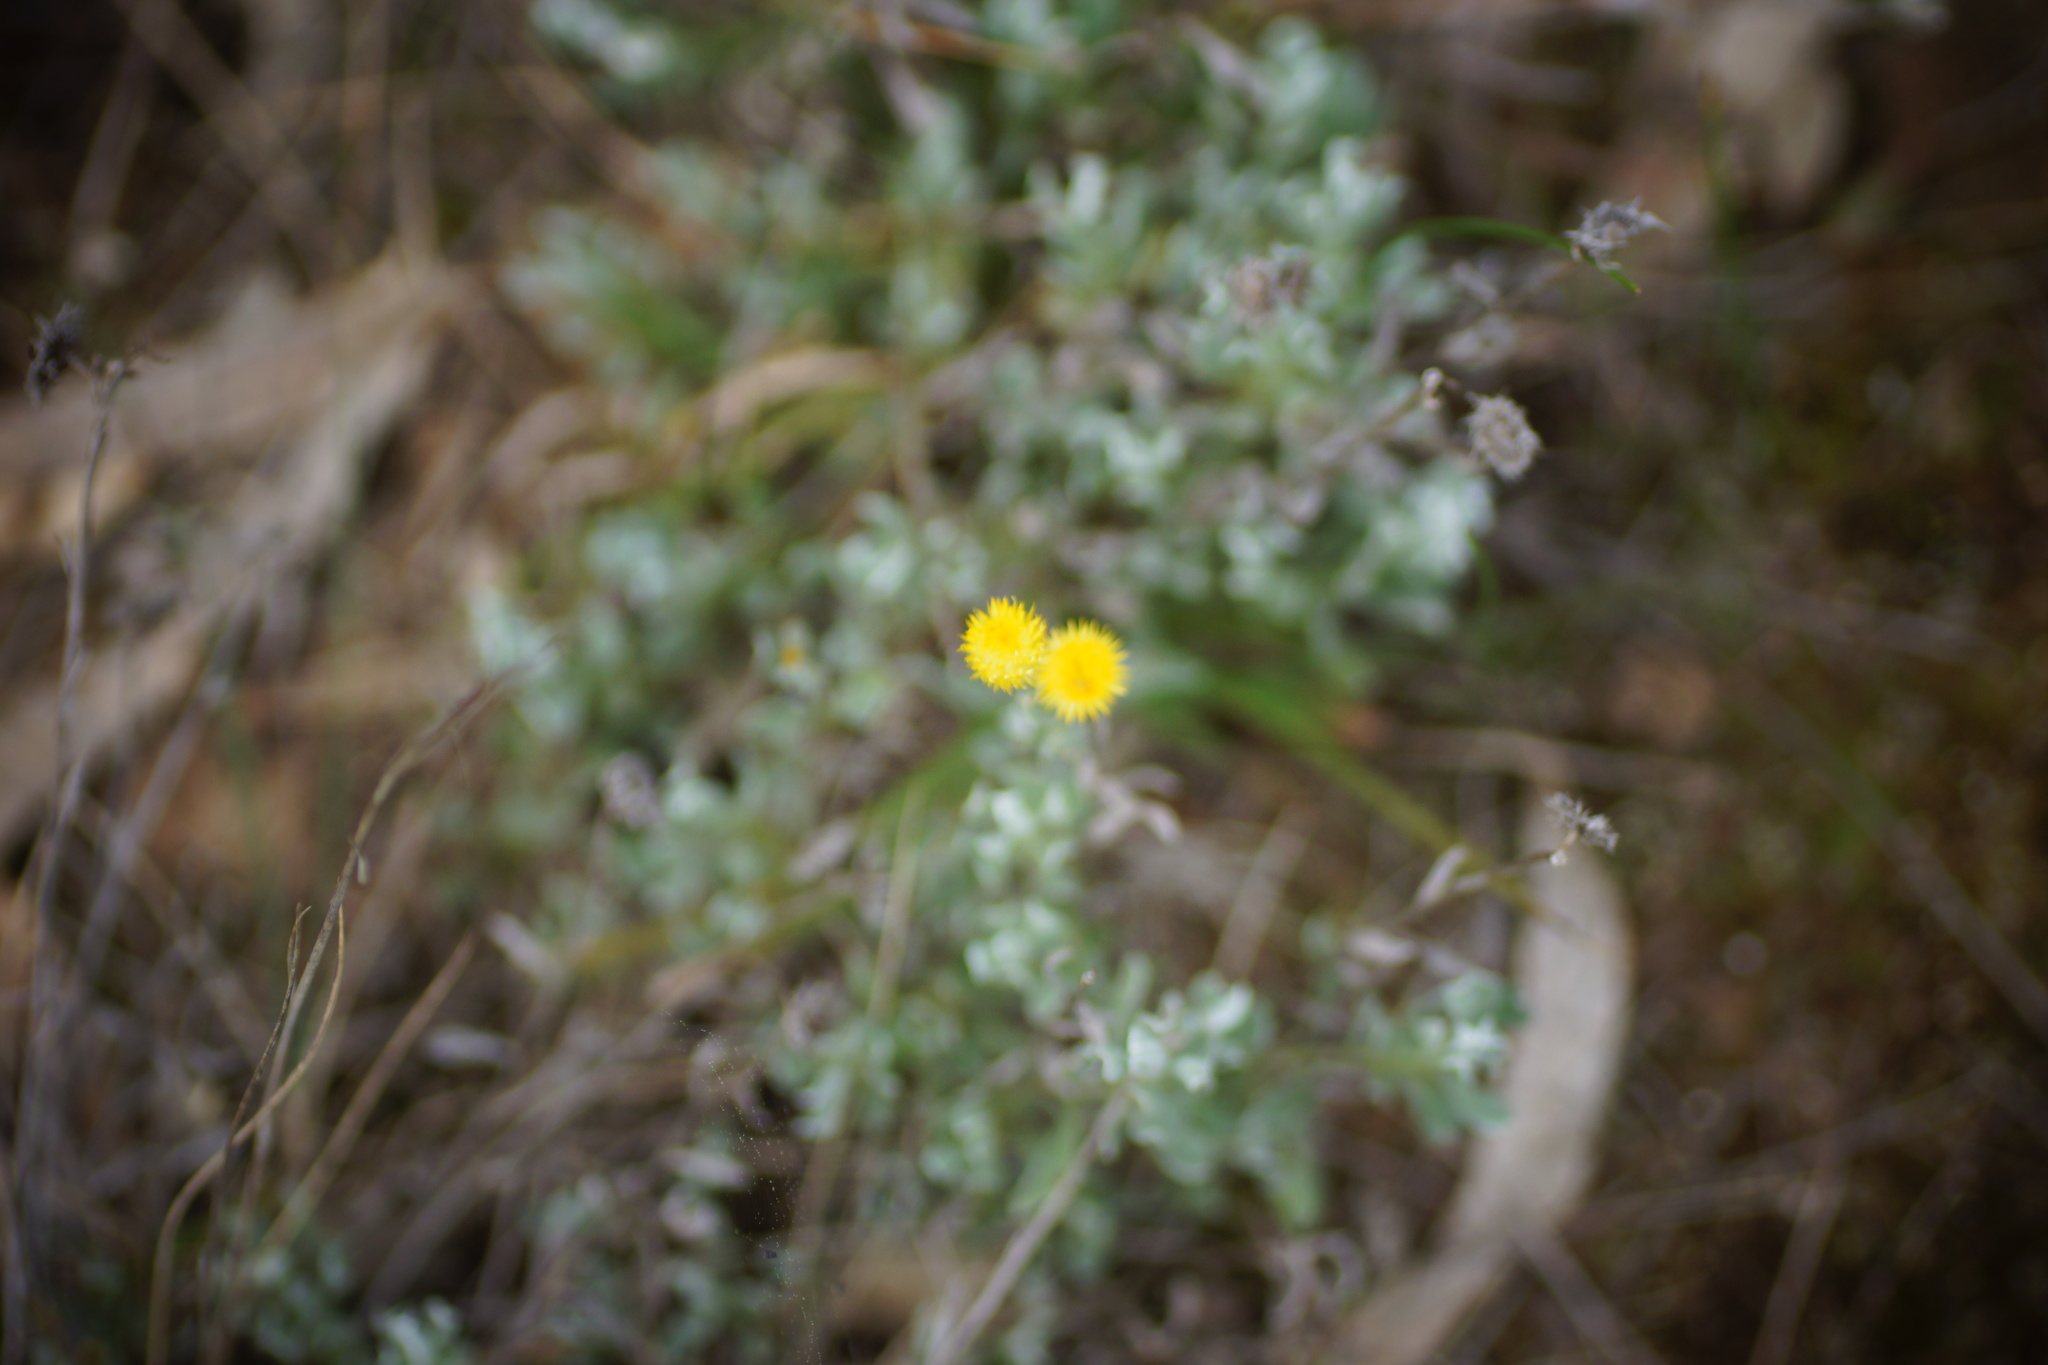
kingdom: Plantae
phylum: Tracheophyta
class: Magnoliopsida
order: Asterales
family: Asteraceae
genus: Chrysocephalum
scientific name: Chrysocephalum apiculatum
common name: Common everlasting
